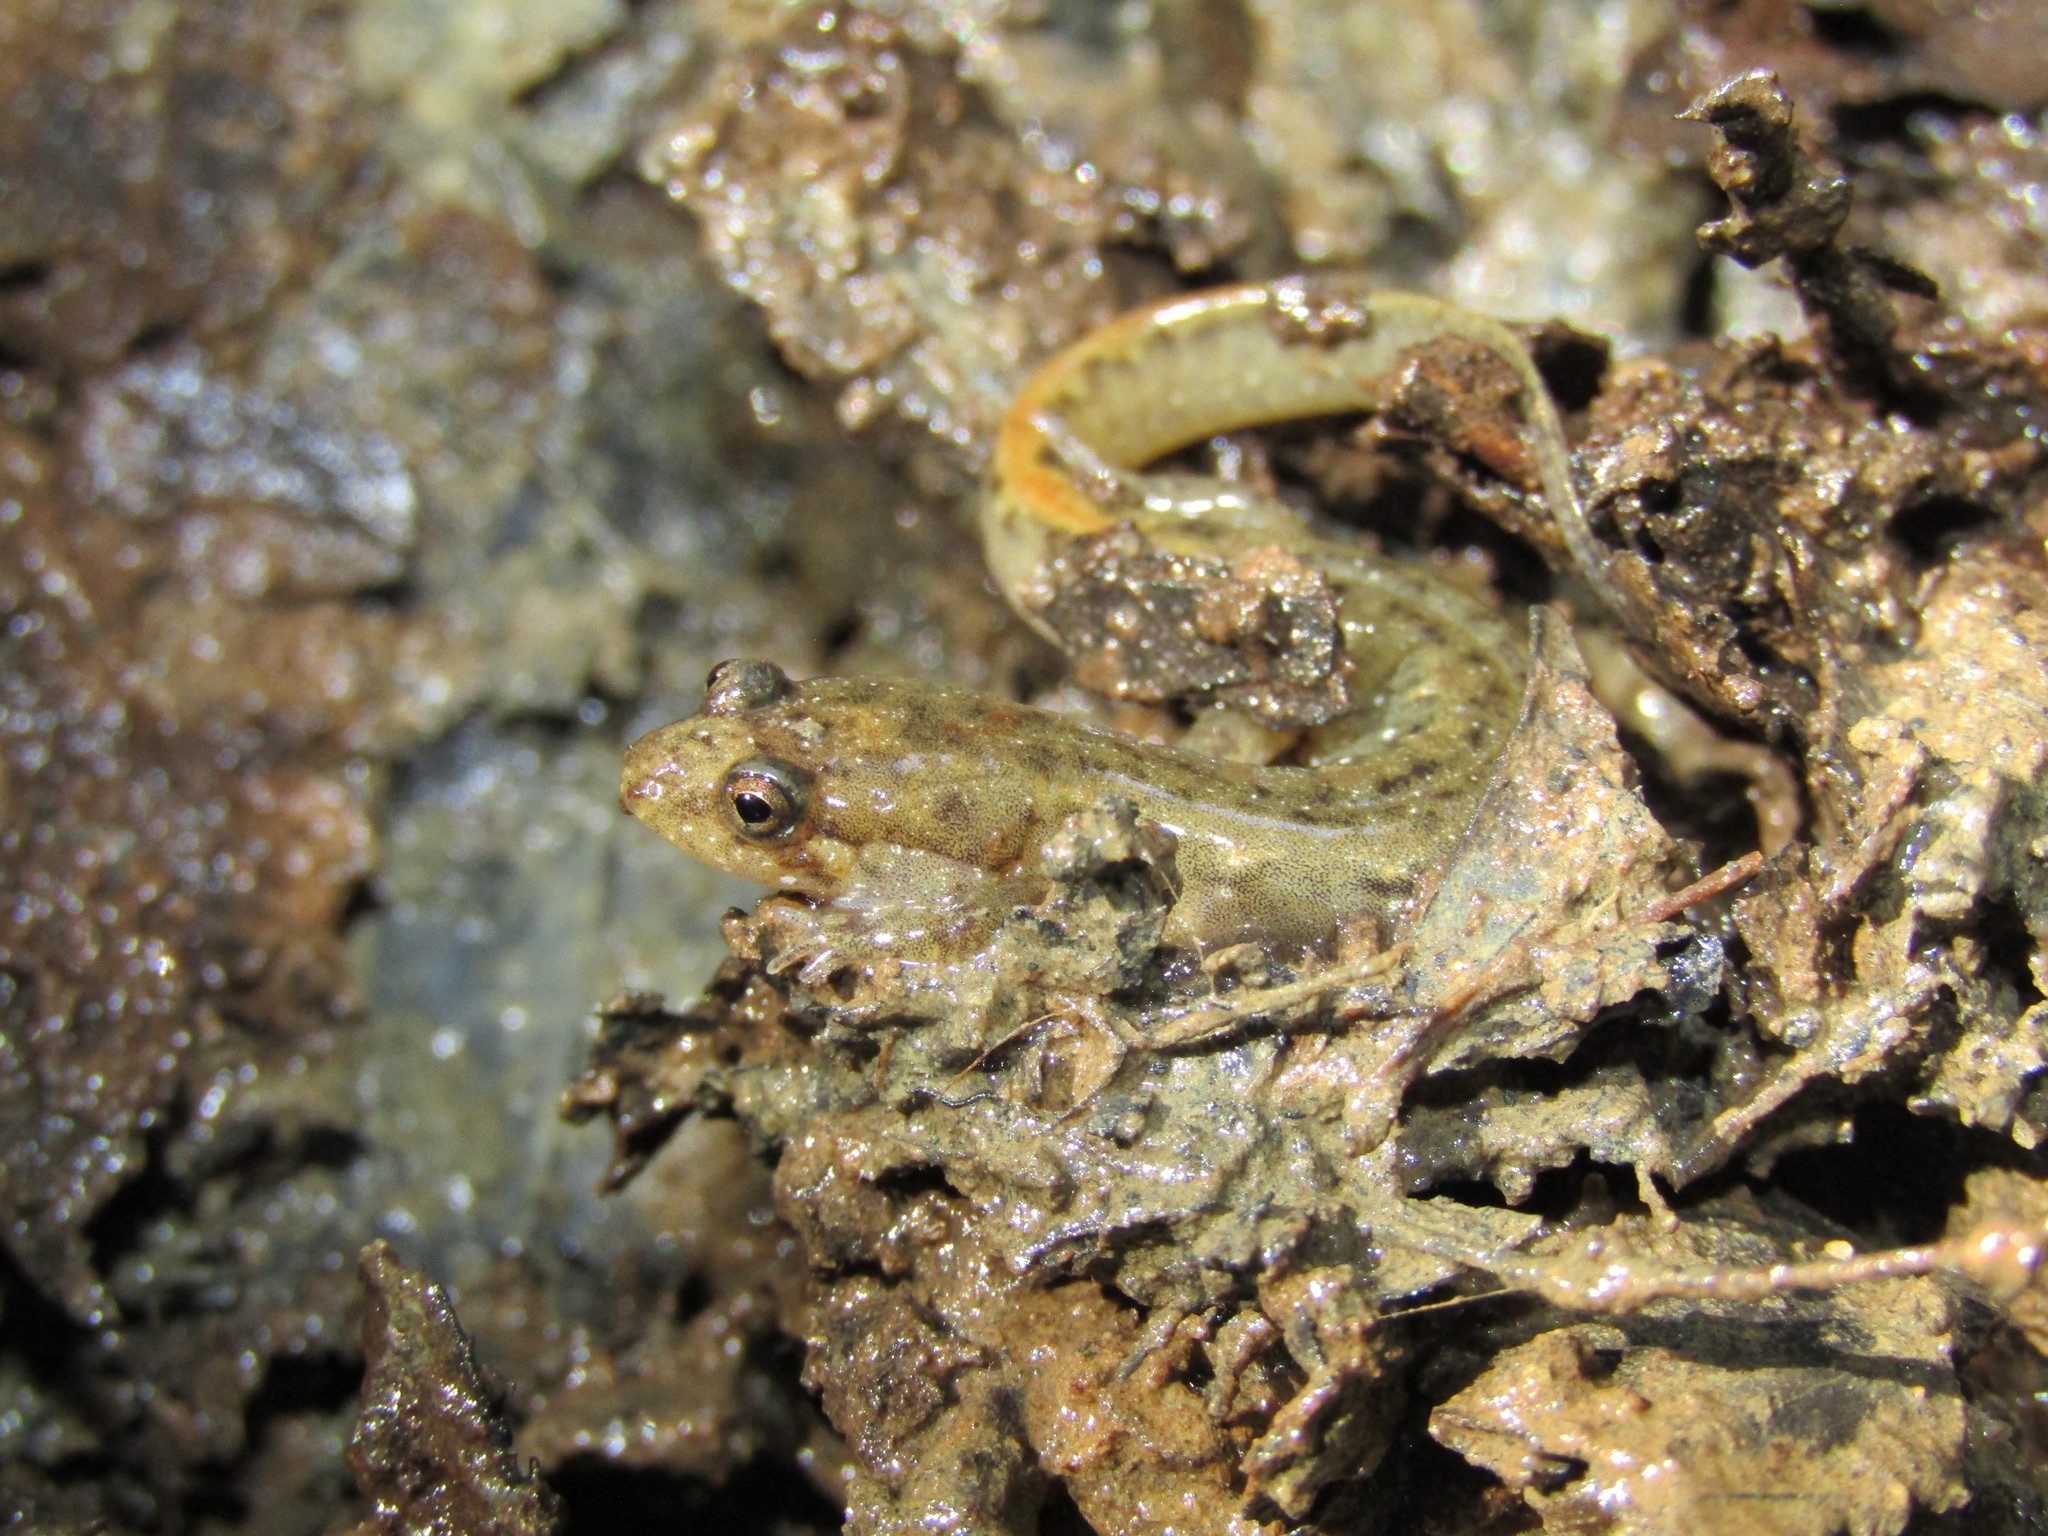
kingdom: Animalia
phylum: Chordata
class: Amphibia
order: Caudata
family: Plethodontidae
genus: Desmognathus
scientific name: Desmognathus
